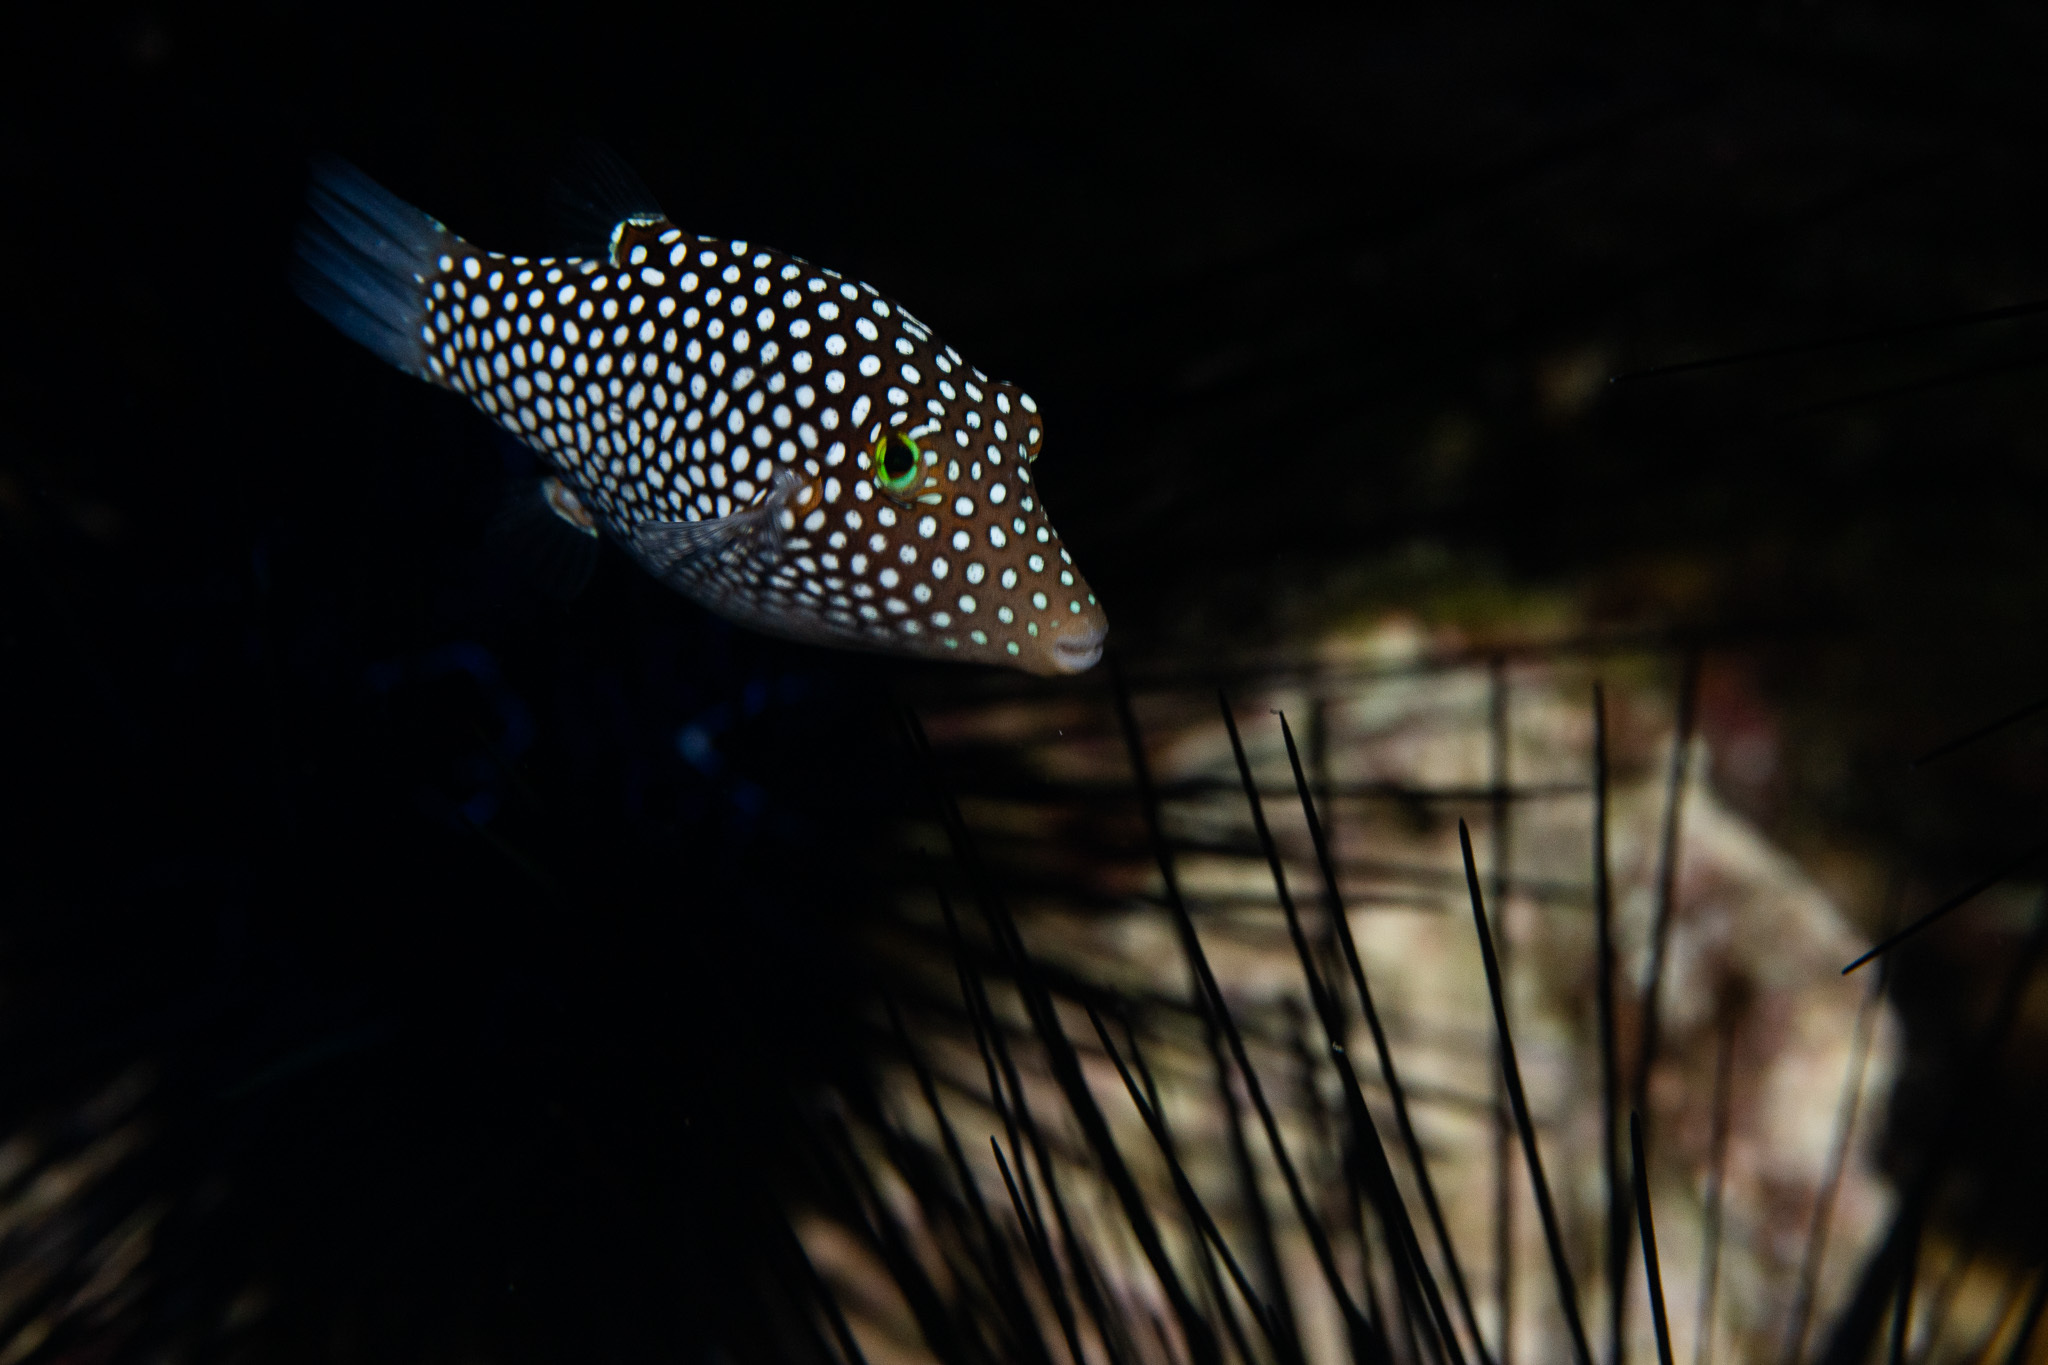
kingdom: Animalia
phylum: Chordata
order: Tetraodontiformes
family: Tetraodontidae
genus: Canthigaster
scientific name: Canthigaster jactator
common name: Hawaiian whitespotted toby
